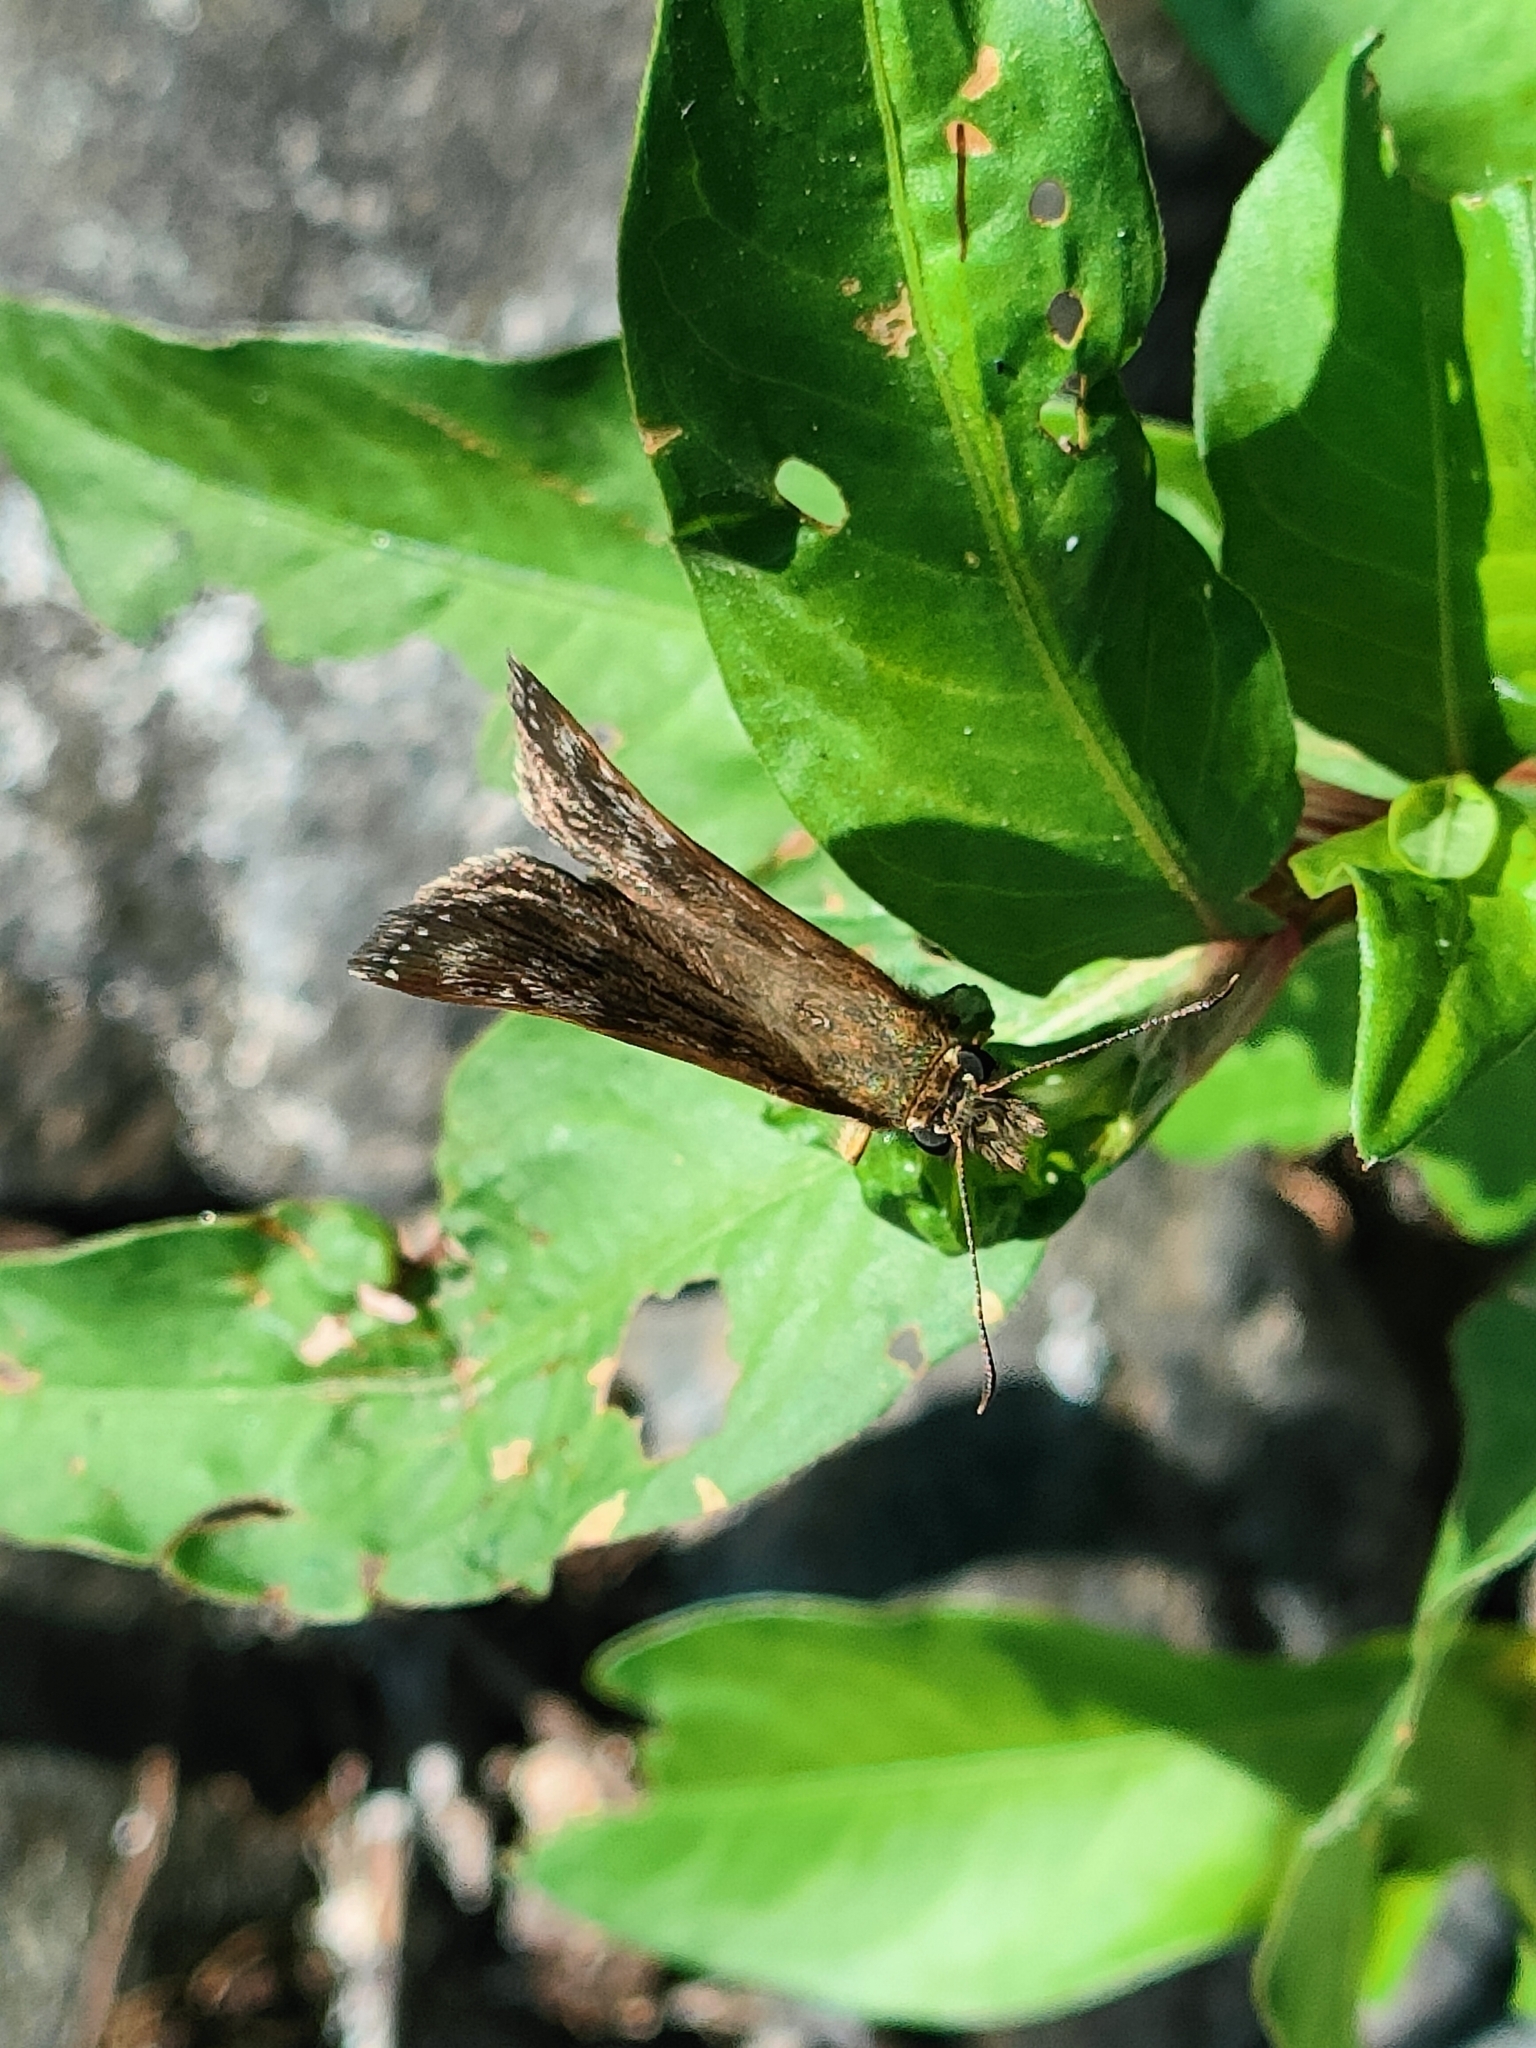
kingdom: Animalia
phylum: Arthropoda
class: Insecta
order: Lepidoptera
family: Hesperiidae
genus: Erynnis
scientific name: Erynnis tages
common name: Dingy skipper
